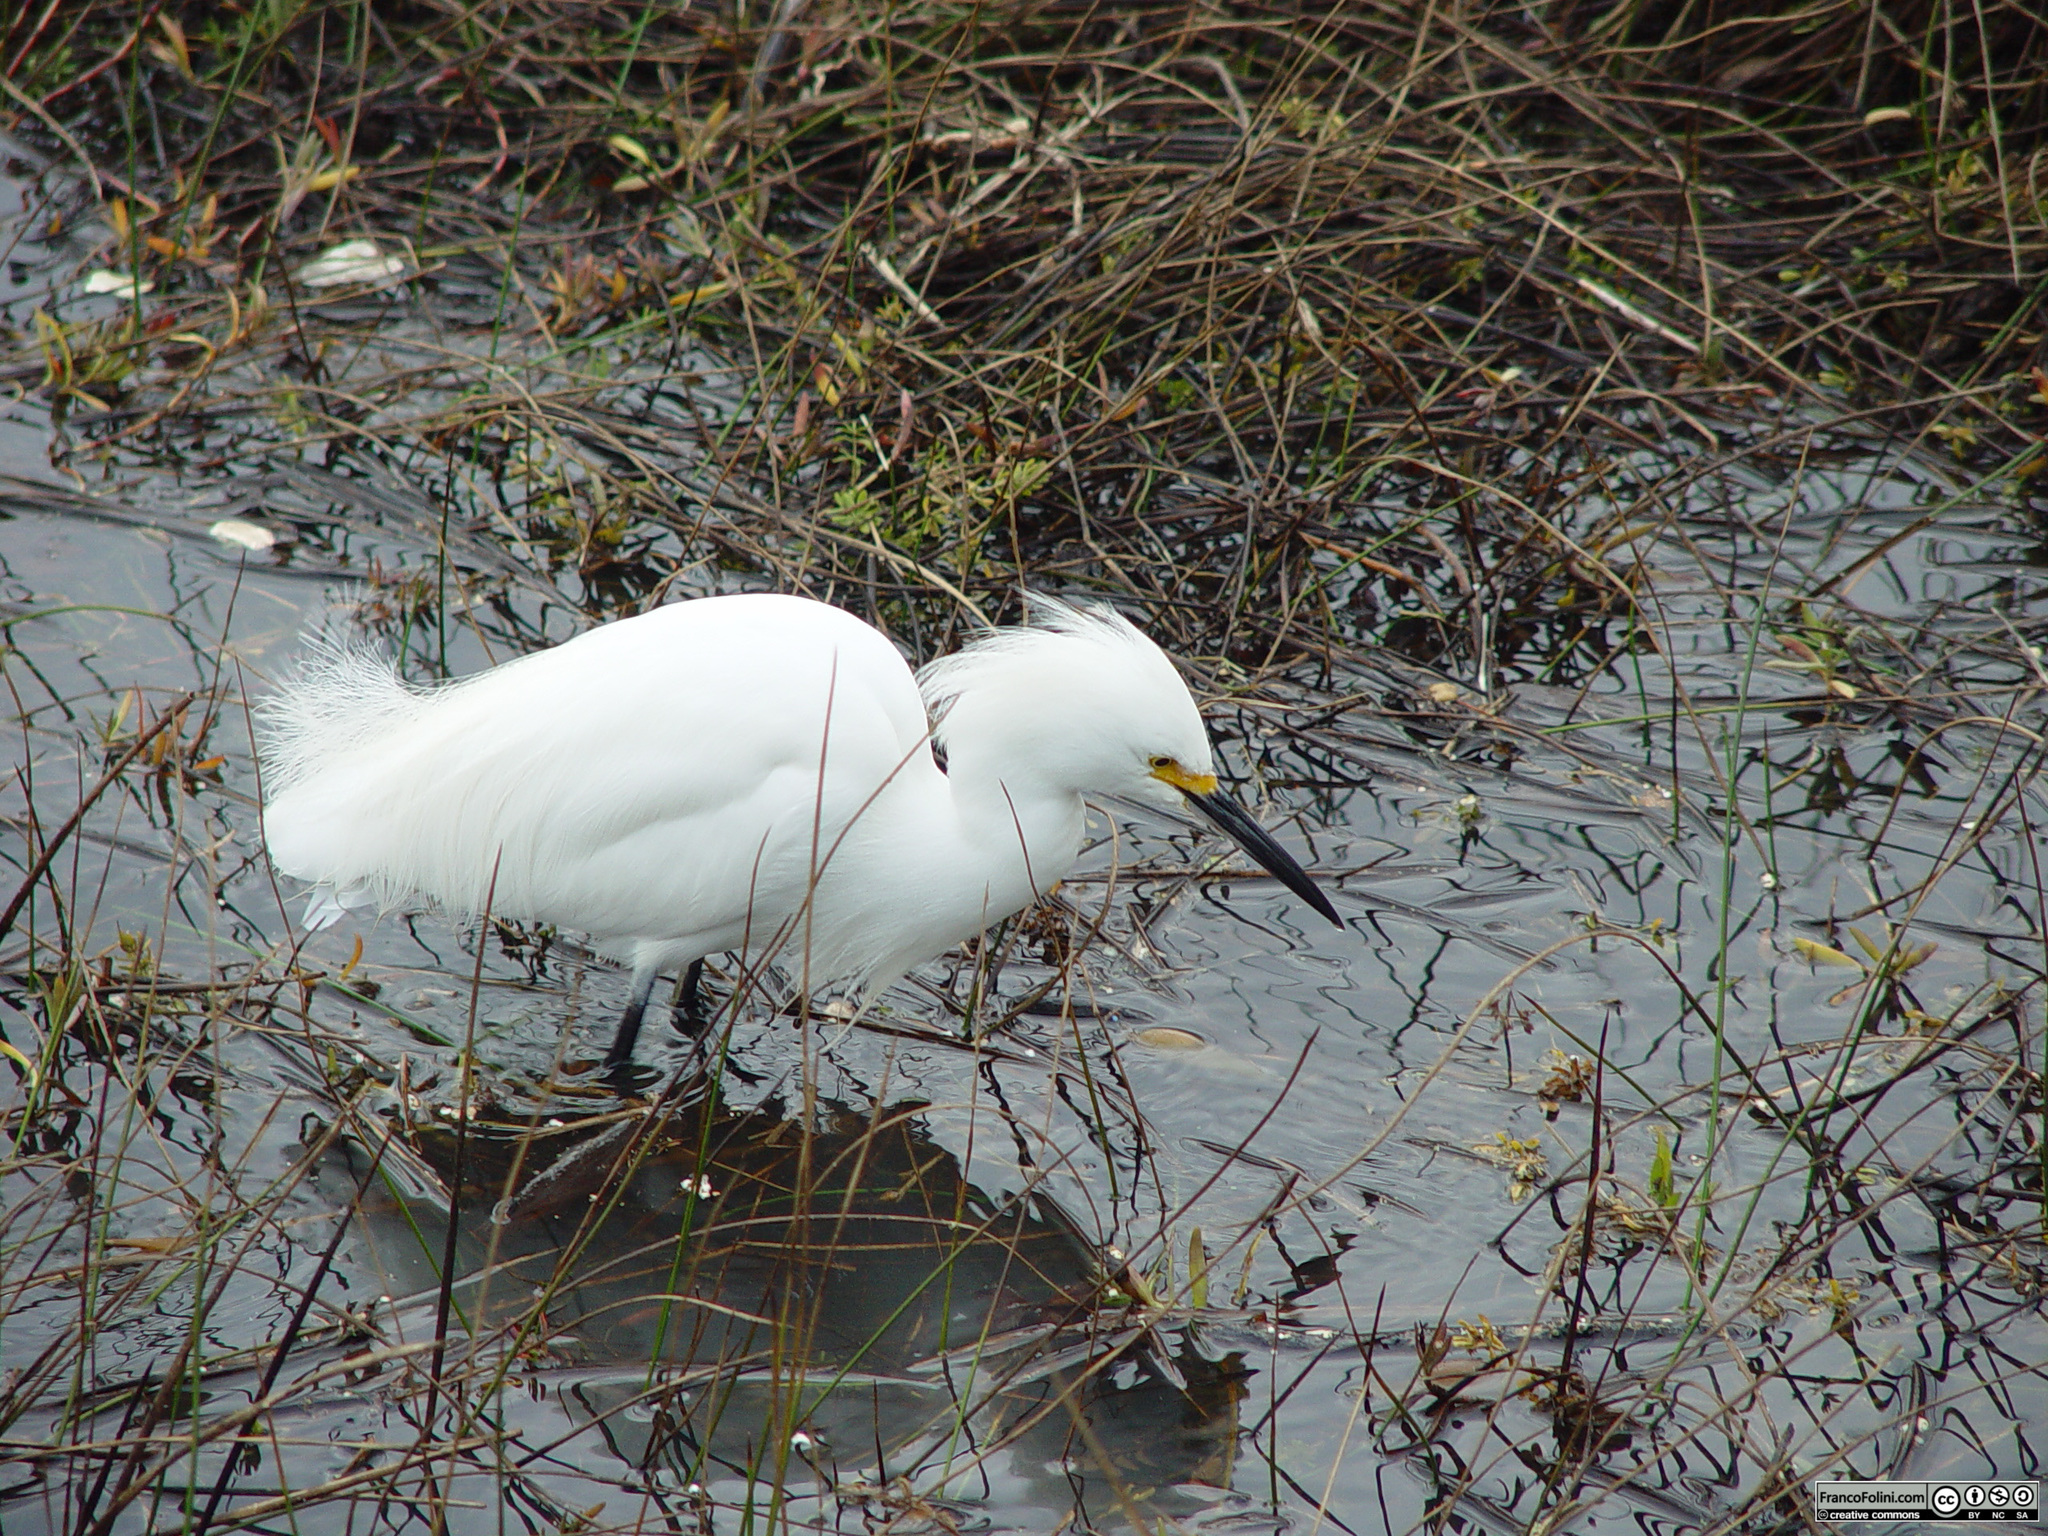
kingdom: Animalia
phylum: Chordata
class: Aves
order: Pelecaniformes
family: Ardeidae
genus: Egretta
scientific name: Egretta thula
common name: Snowy egret
